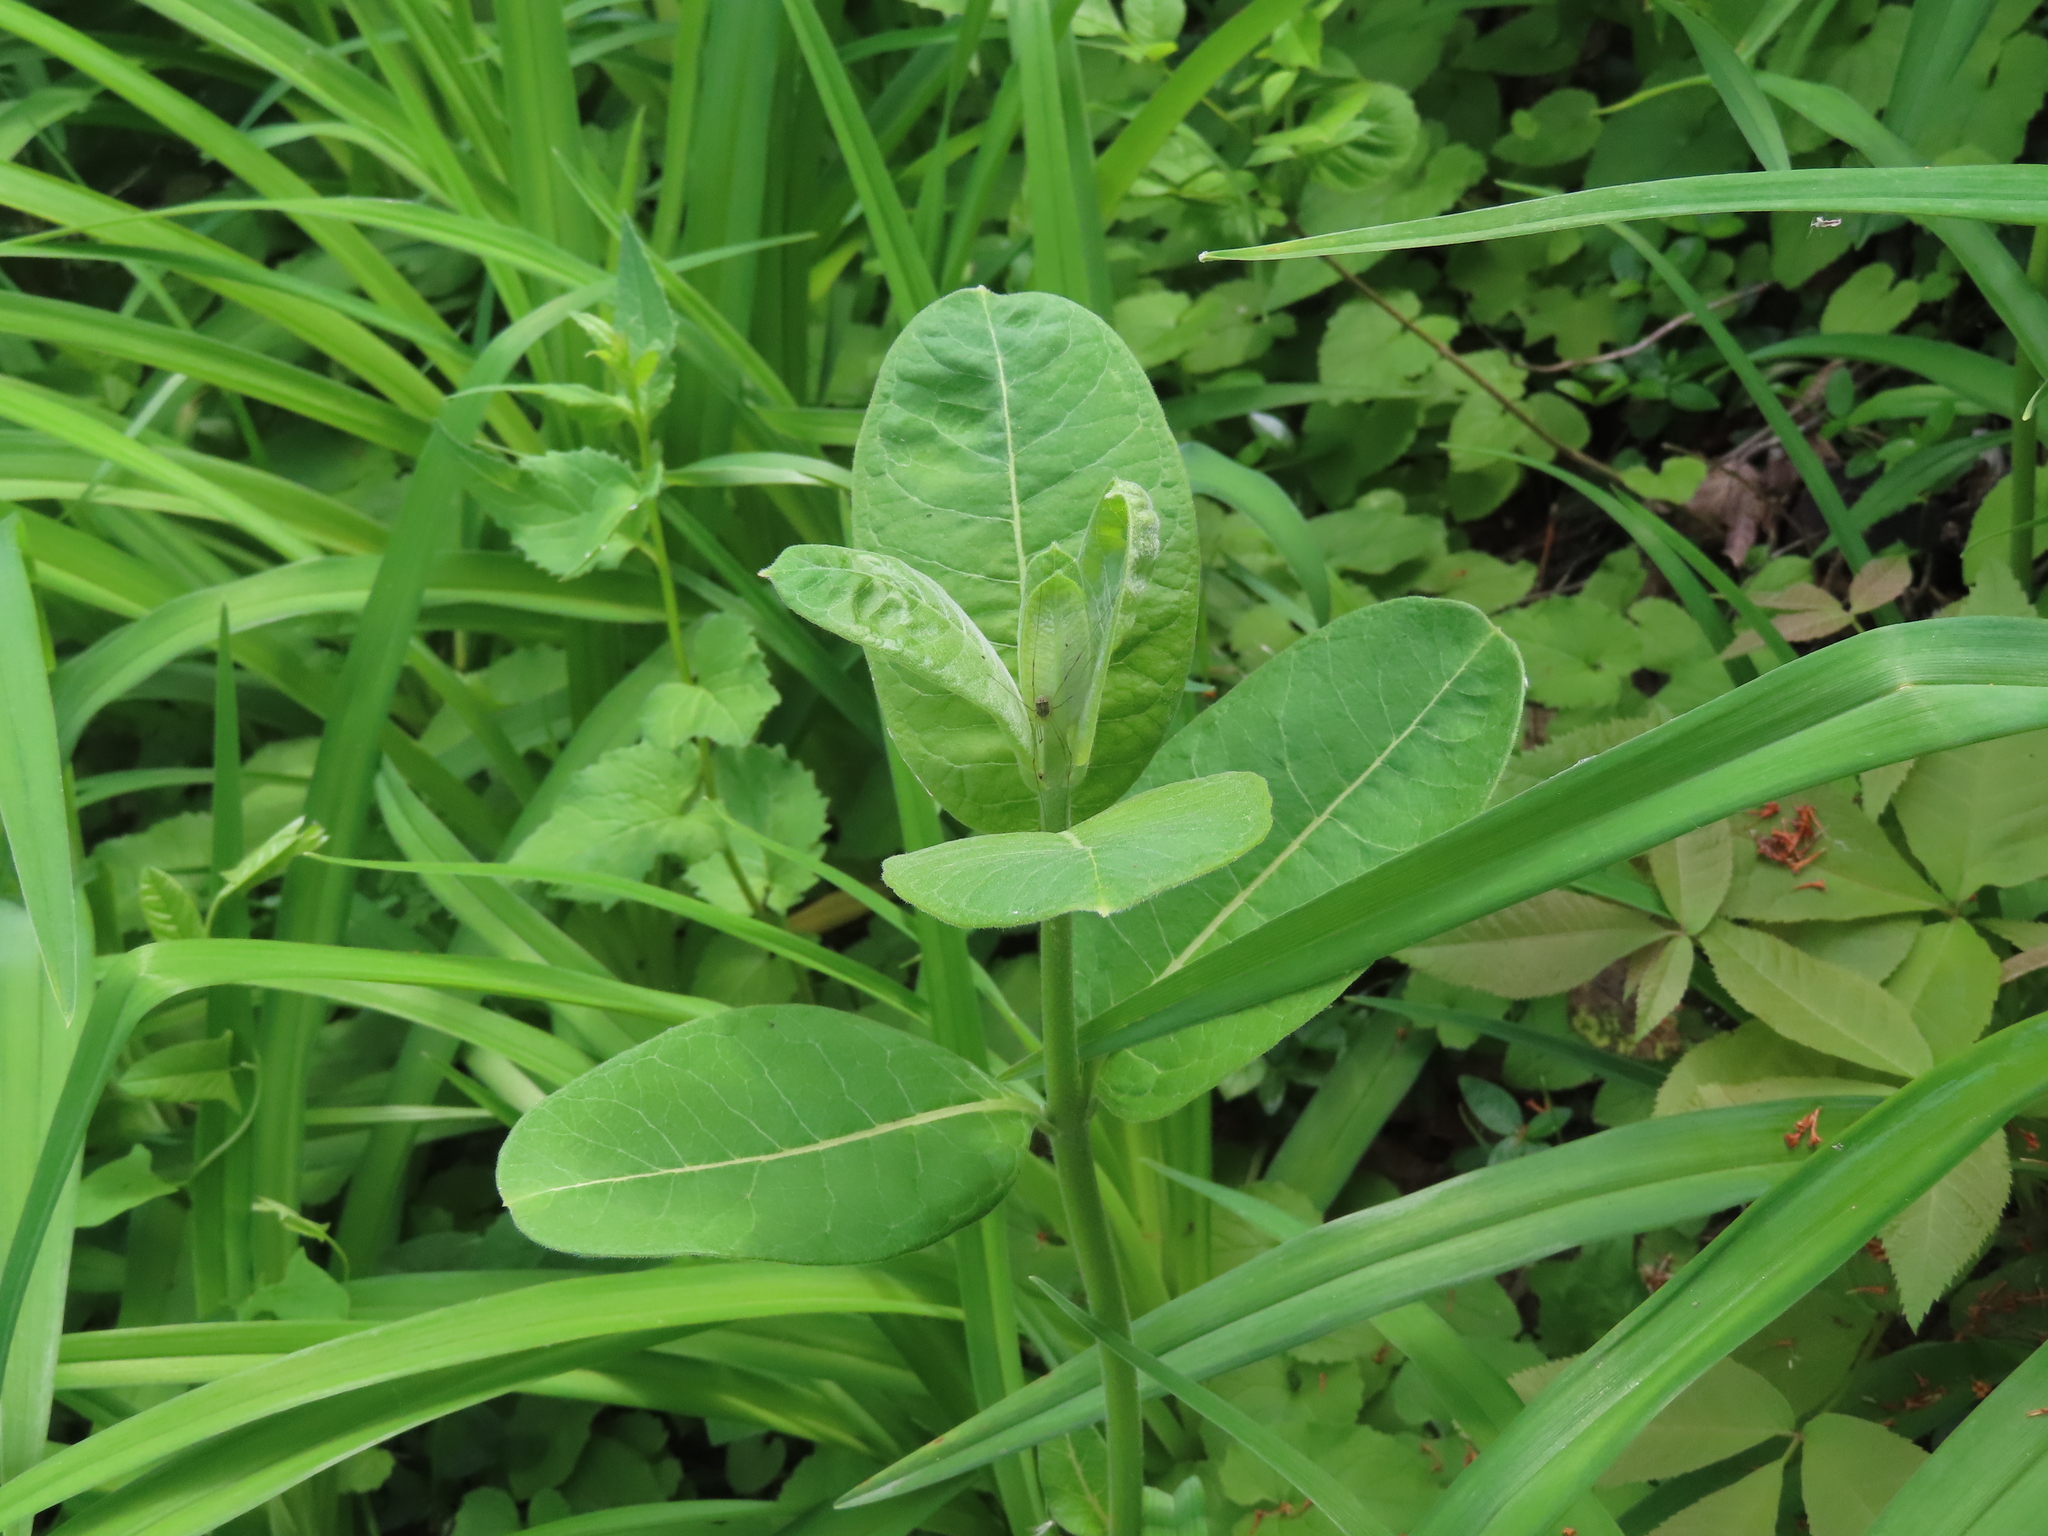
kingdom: Plantae
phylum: Tracheophyta
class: Magnoliopsida
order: Gentianales
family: Apocynaceae
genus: Asclepias
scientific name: Asclepias syriaca
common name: Common milkweed
